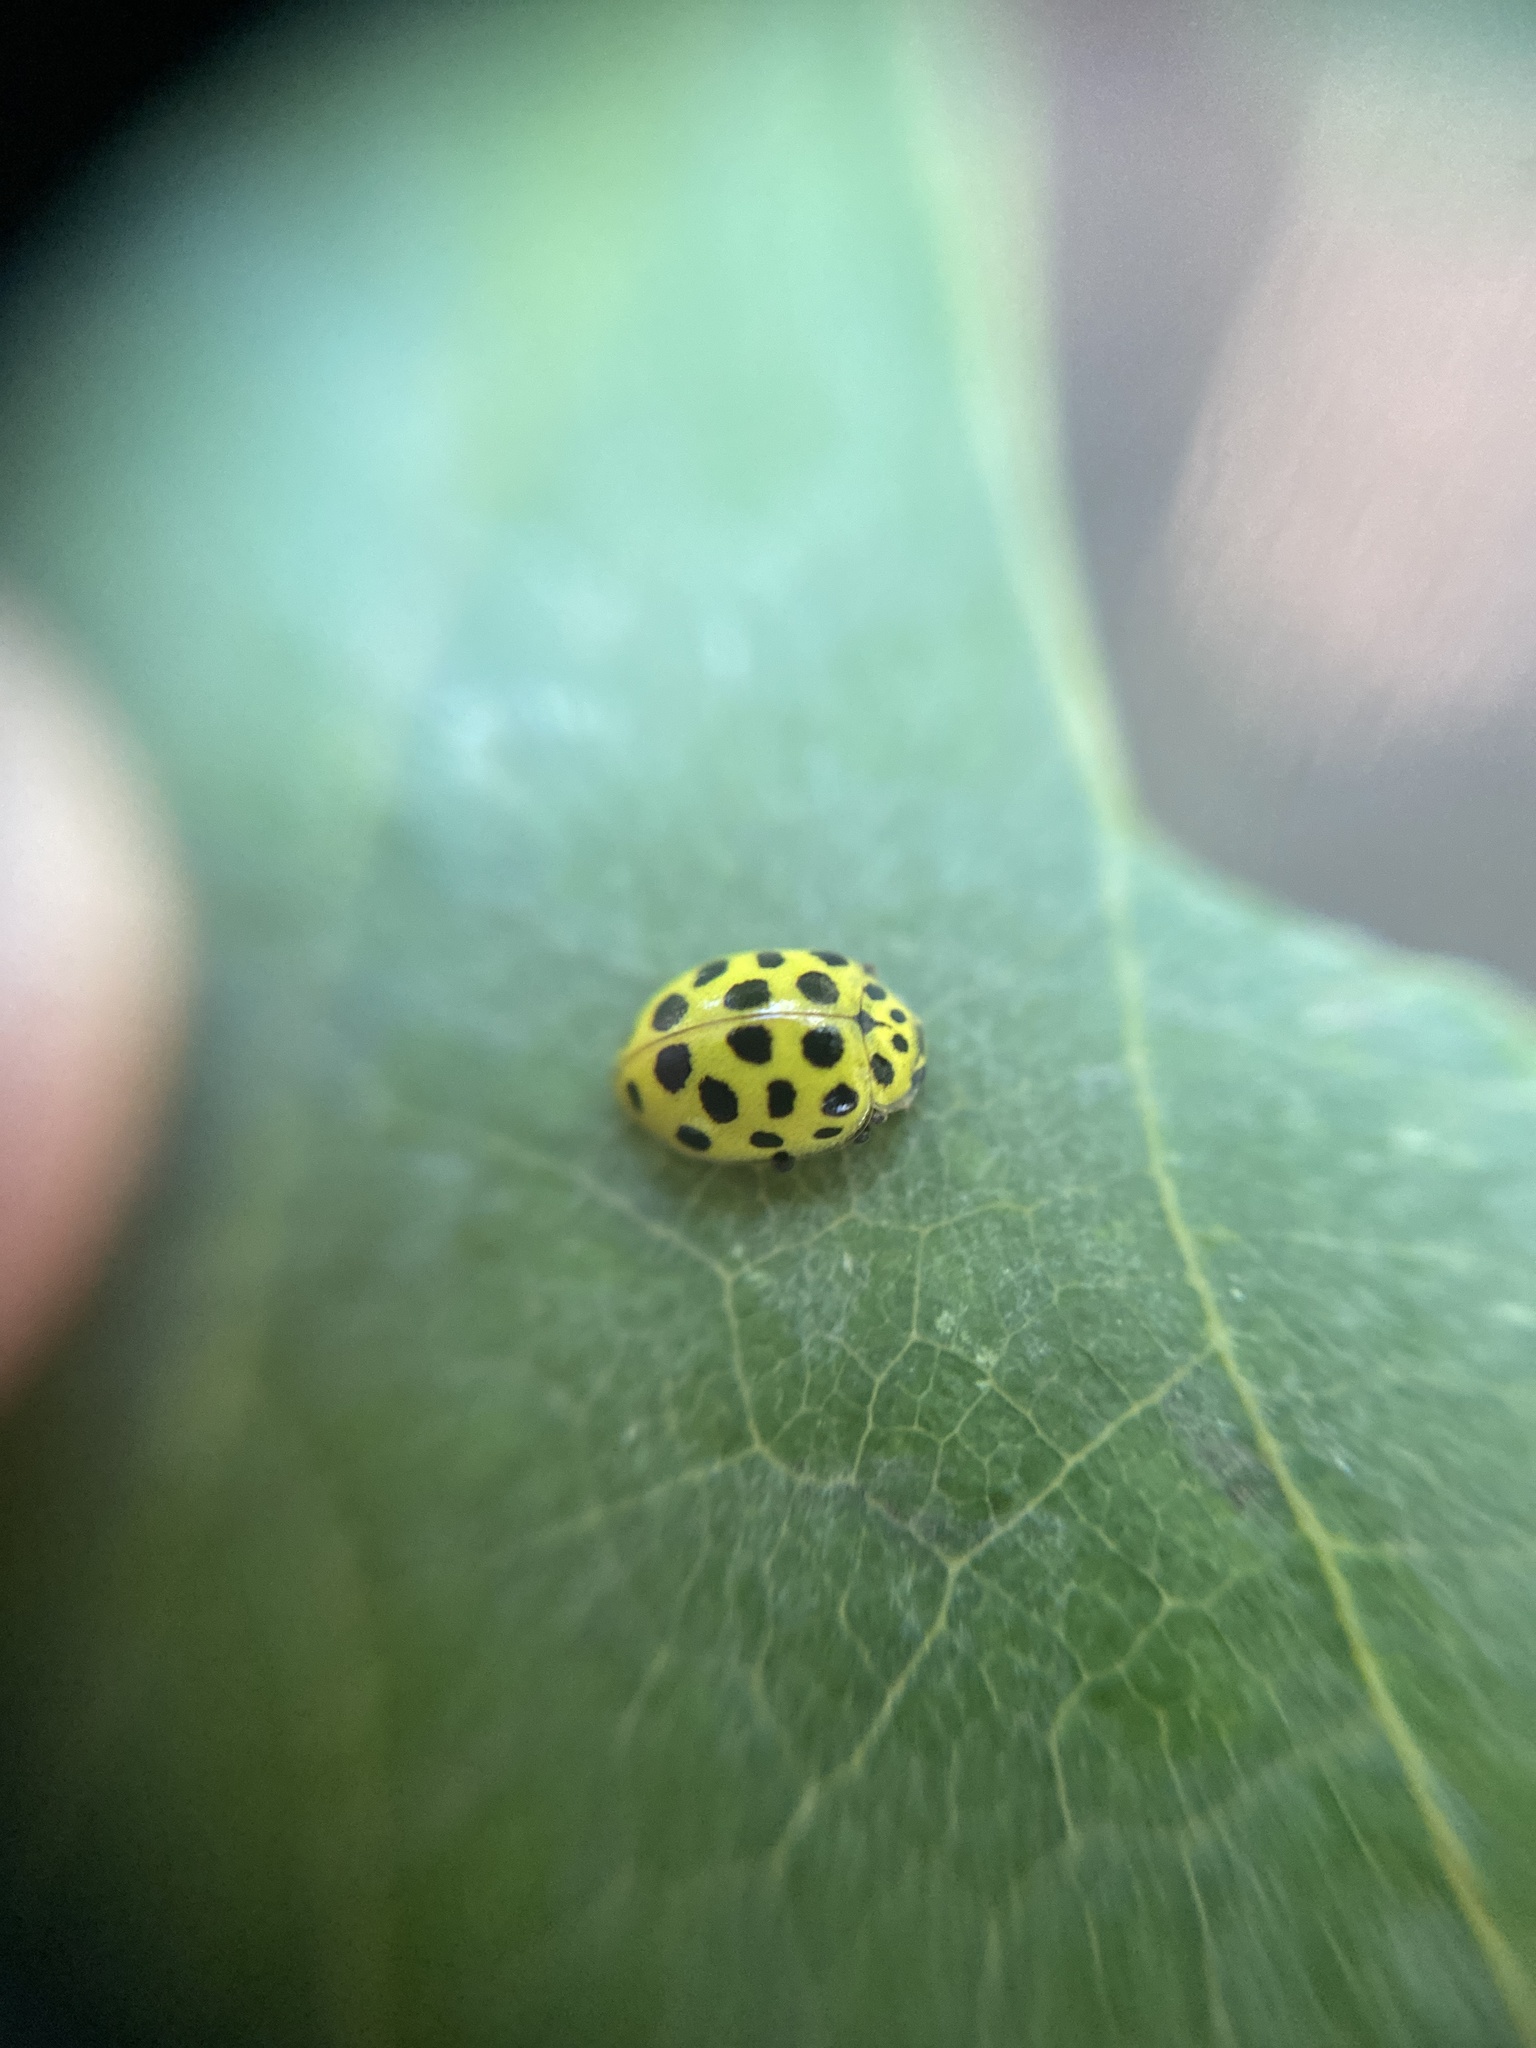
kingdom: Animalia
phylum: Arthropoda
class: Insecta
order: Coleoptera
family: Coccinellidae
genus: Psyllobora
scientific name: Psyllobora vigintiduopunctata
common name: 22-spot ladybird
